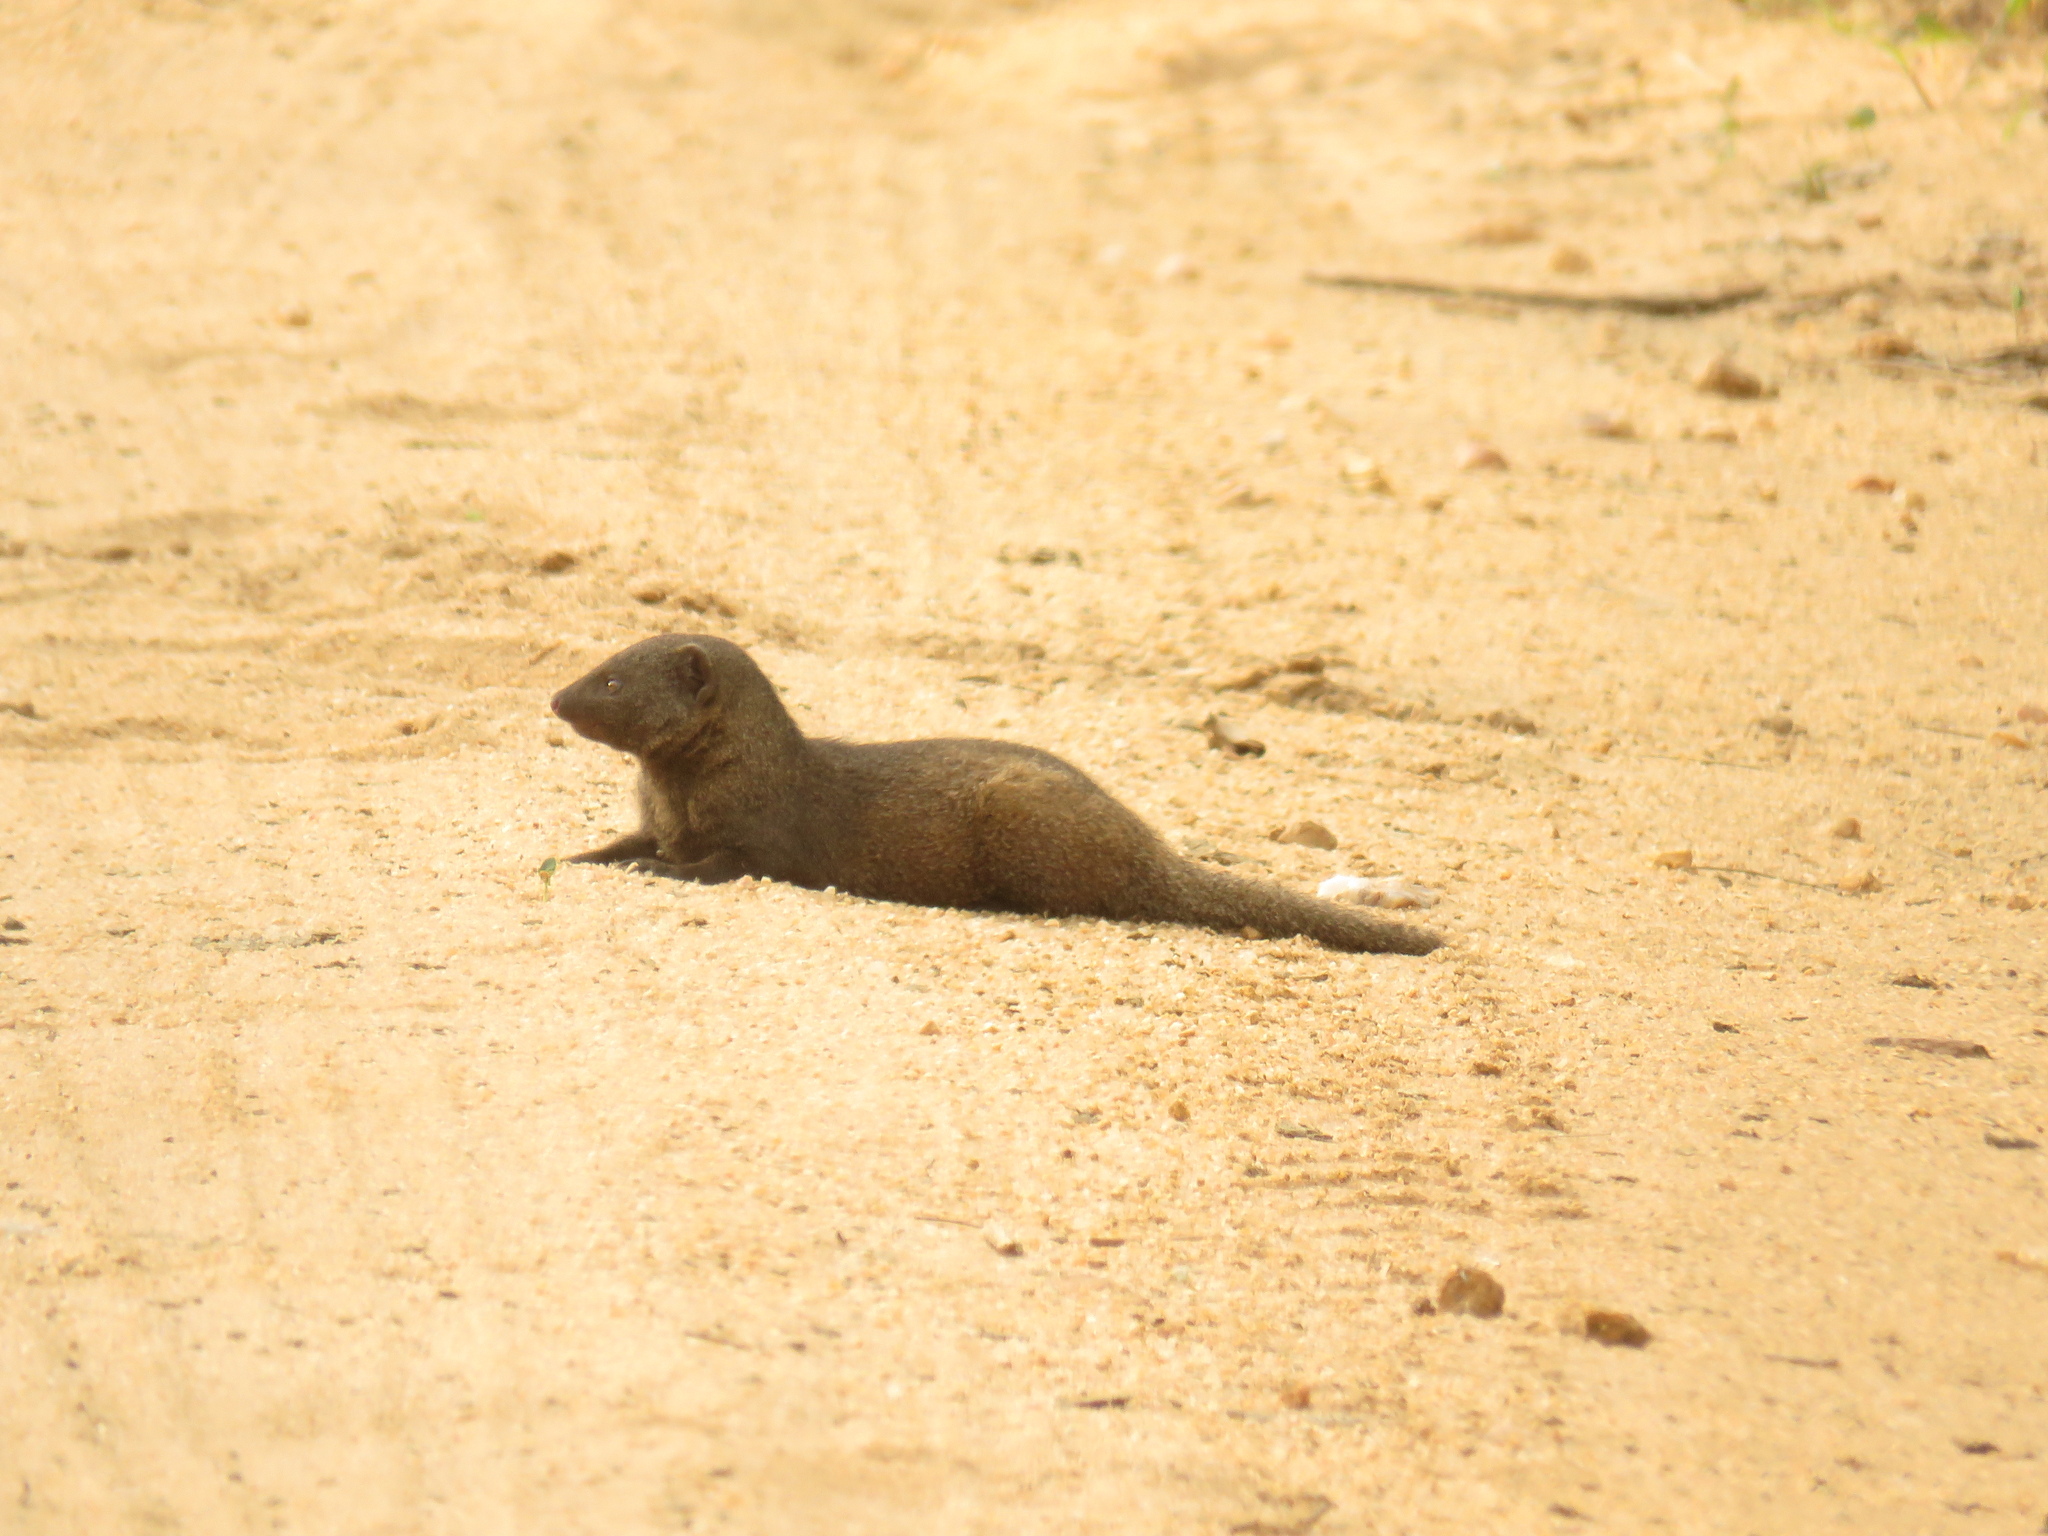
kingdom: Animalia
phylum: Chordata
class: Mammalia
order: Carnivora
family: Herpestidae
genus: Helogale
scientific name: Helogale parvula
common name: Common dwarf mongoose
